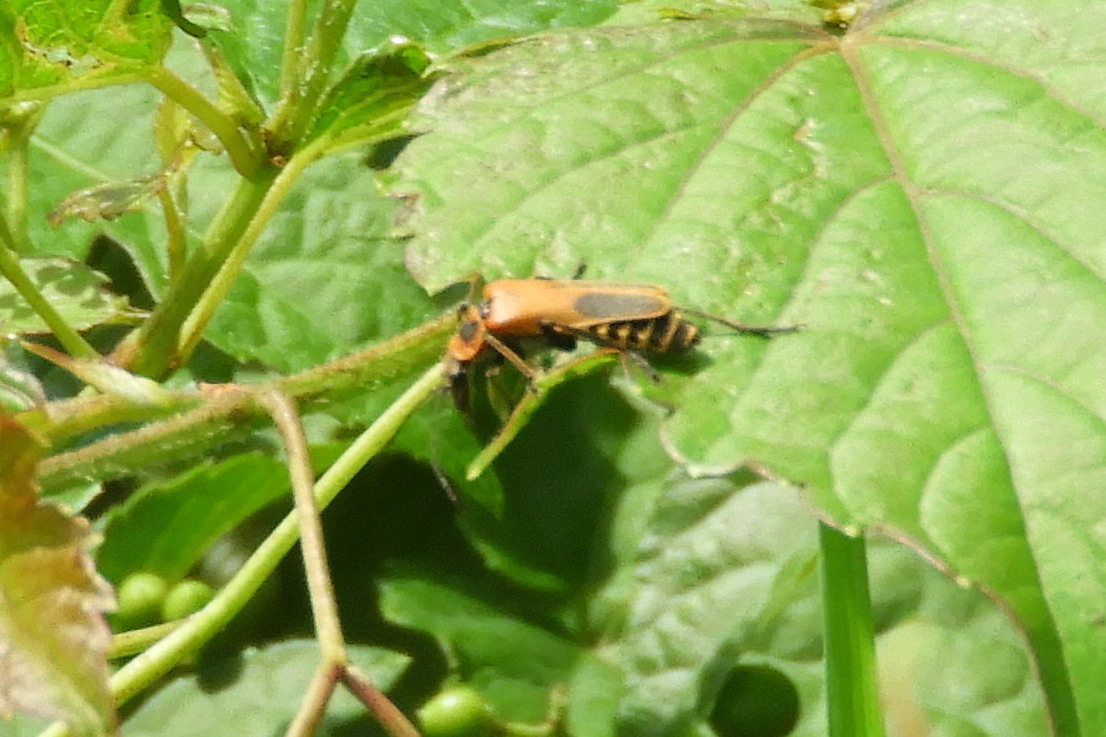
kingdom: Animalia
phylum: Arthropoda
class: Insecta
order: Coleoptera
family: Cantharidae
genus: Chauliognathus
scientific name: Chauliognathus pensylvanicus
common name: Goldenrod soldier beetle
